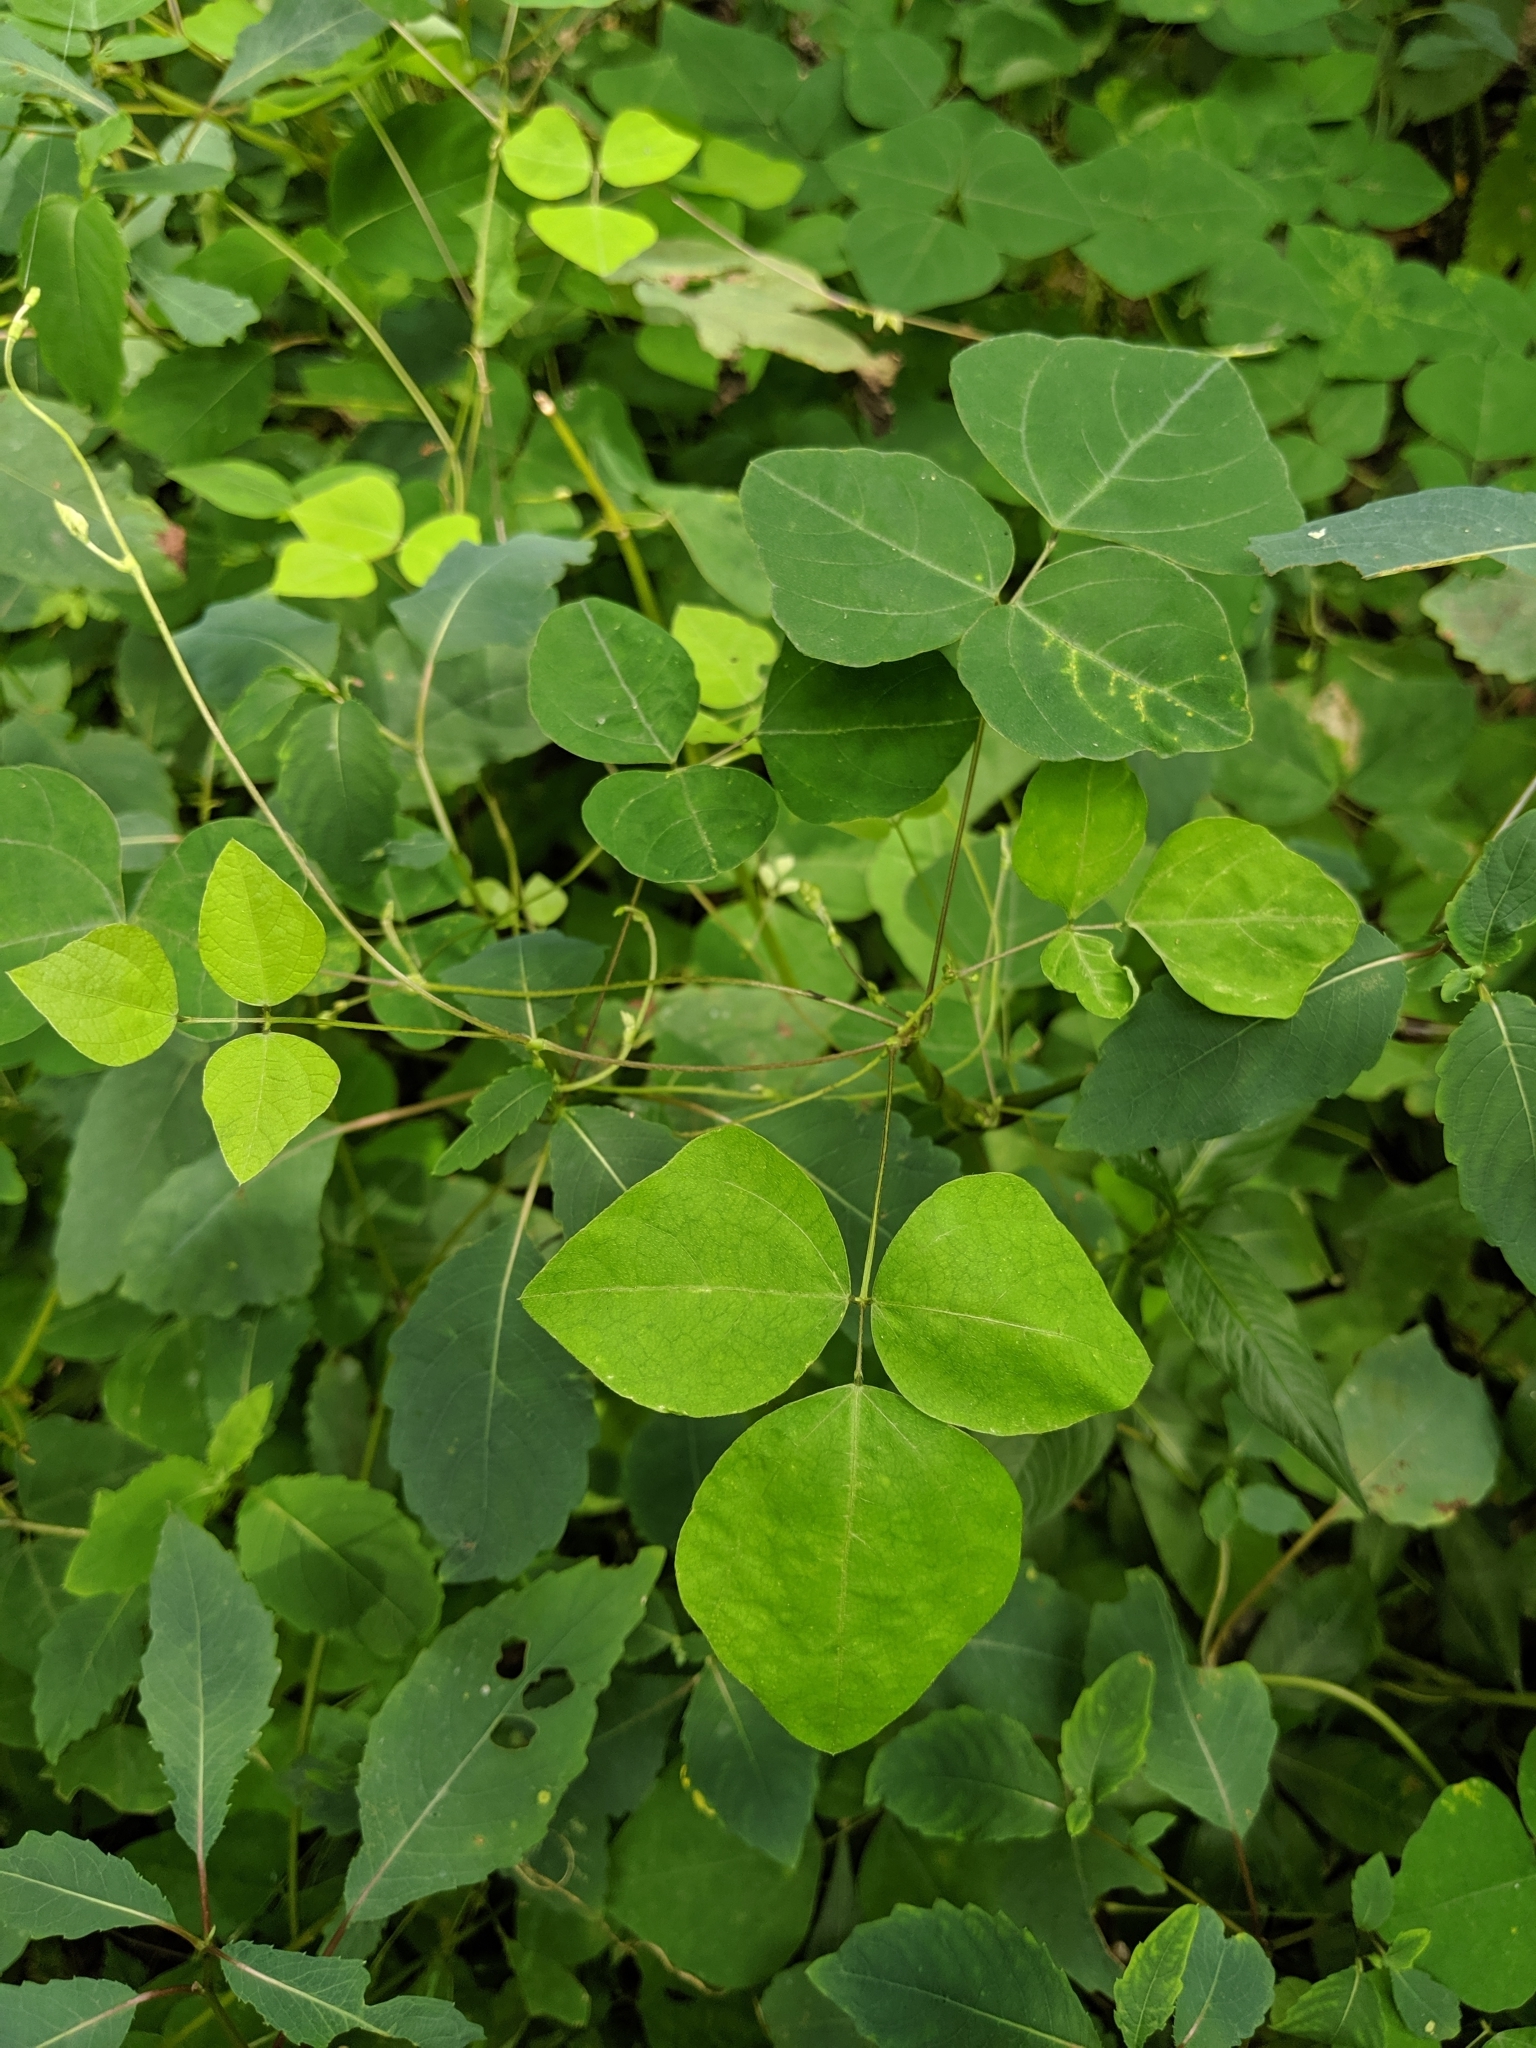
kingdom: Plantae
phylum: Tracheophyta
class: Magnoliopsida
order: Fabales
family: Fabaceae
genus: Amphicarpaea
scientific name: Amphicarpaea bracteata
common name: American hog peanut
